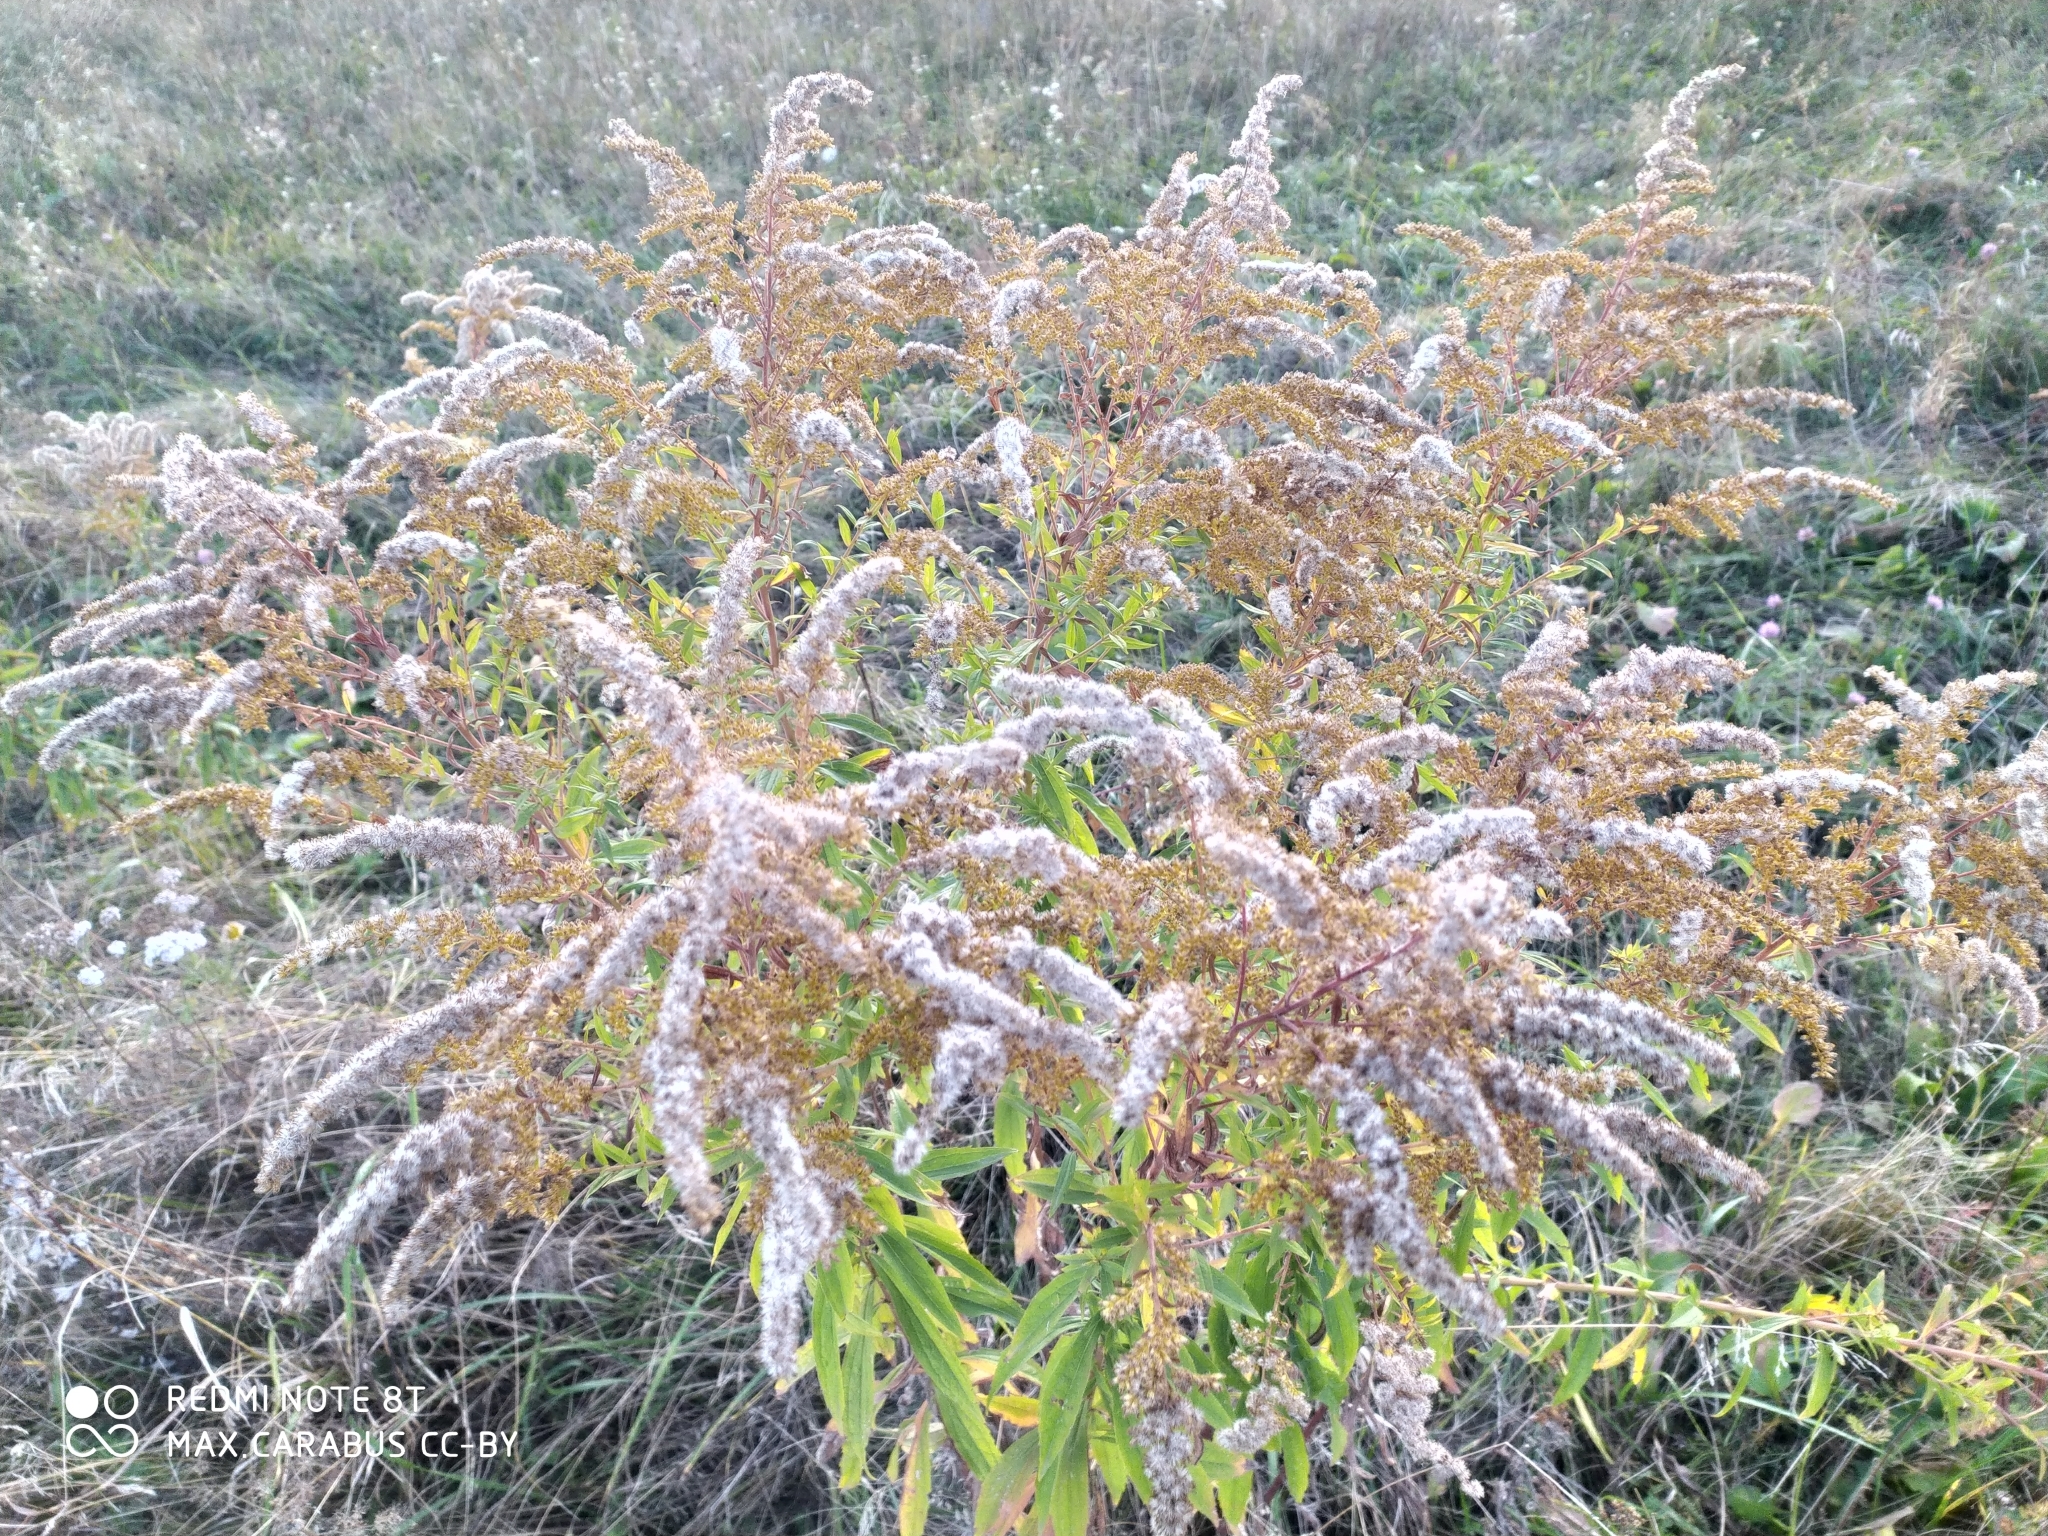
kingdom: Plantae
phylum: Tracheophyta
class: Magnoliopsida
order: Asterales
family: Asteraceae
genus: Solidago
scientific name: Solidago canadensis
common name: Canada goldenrod
